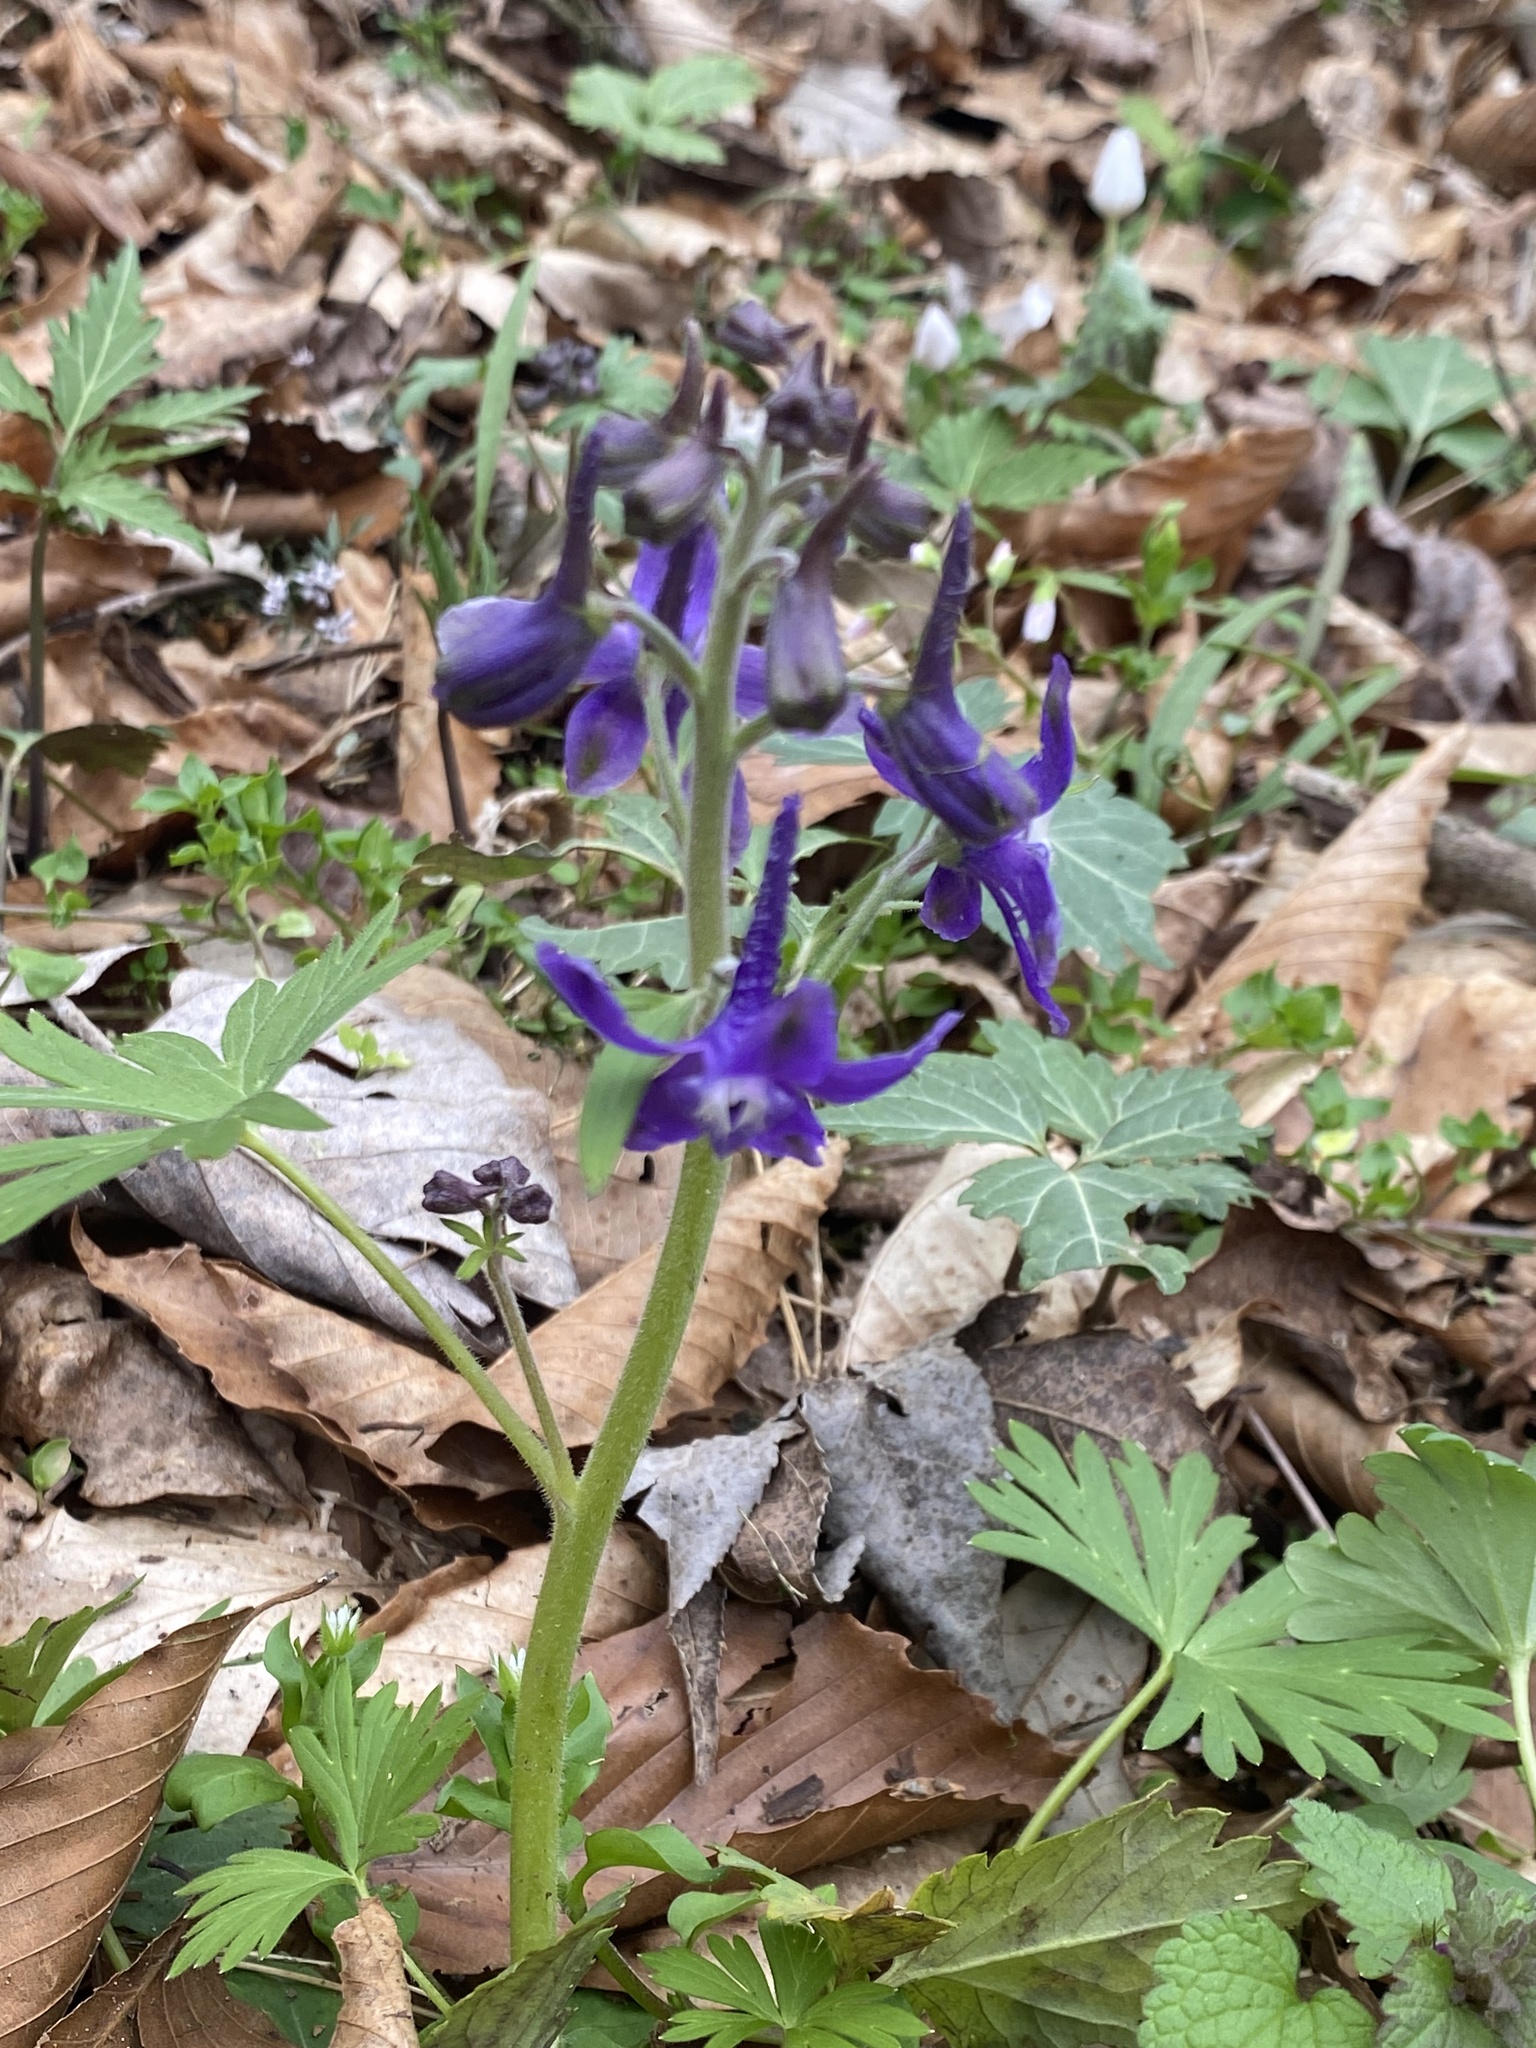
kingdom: Plantae
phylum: Tracheophyta
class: Magnoliopsida
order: Ranunculales
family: Ranunculaceae
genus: Delphinium
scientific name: Delphinium tricorne
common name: Dwarf larkspur
